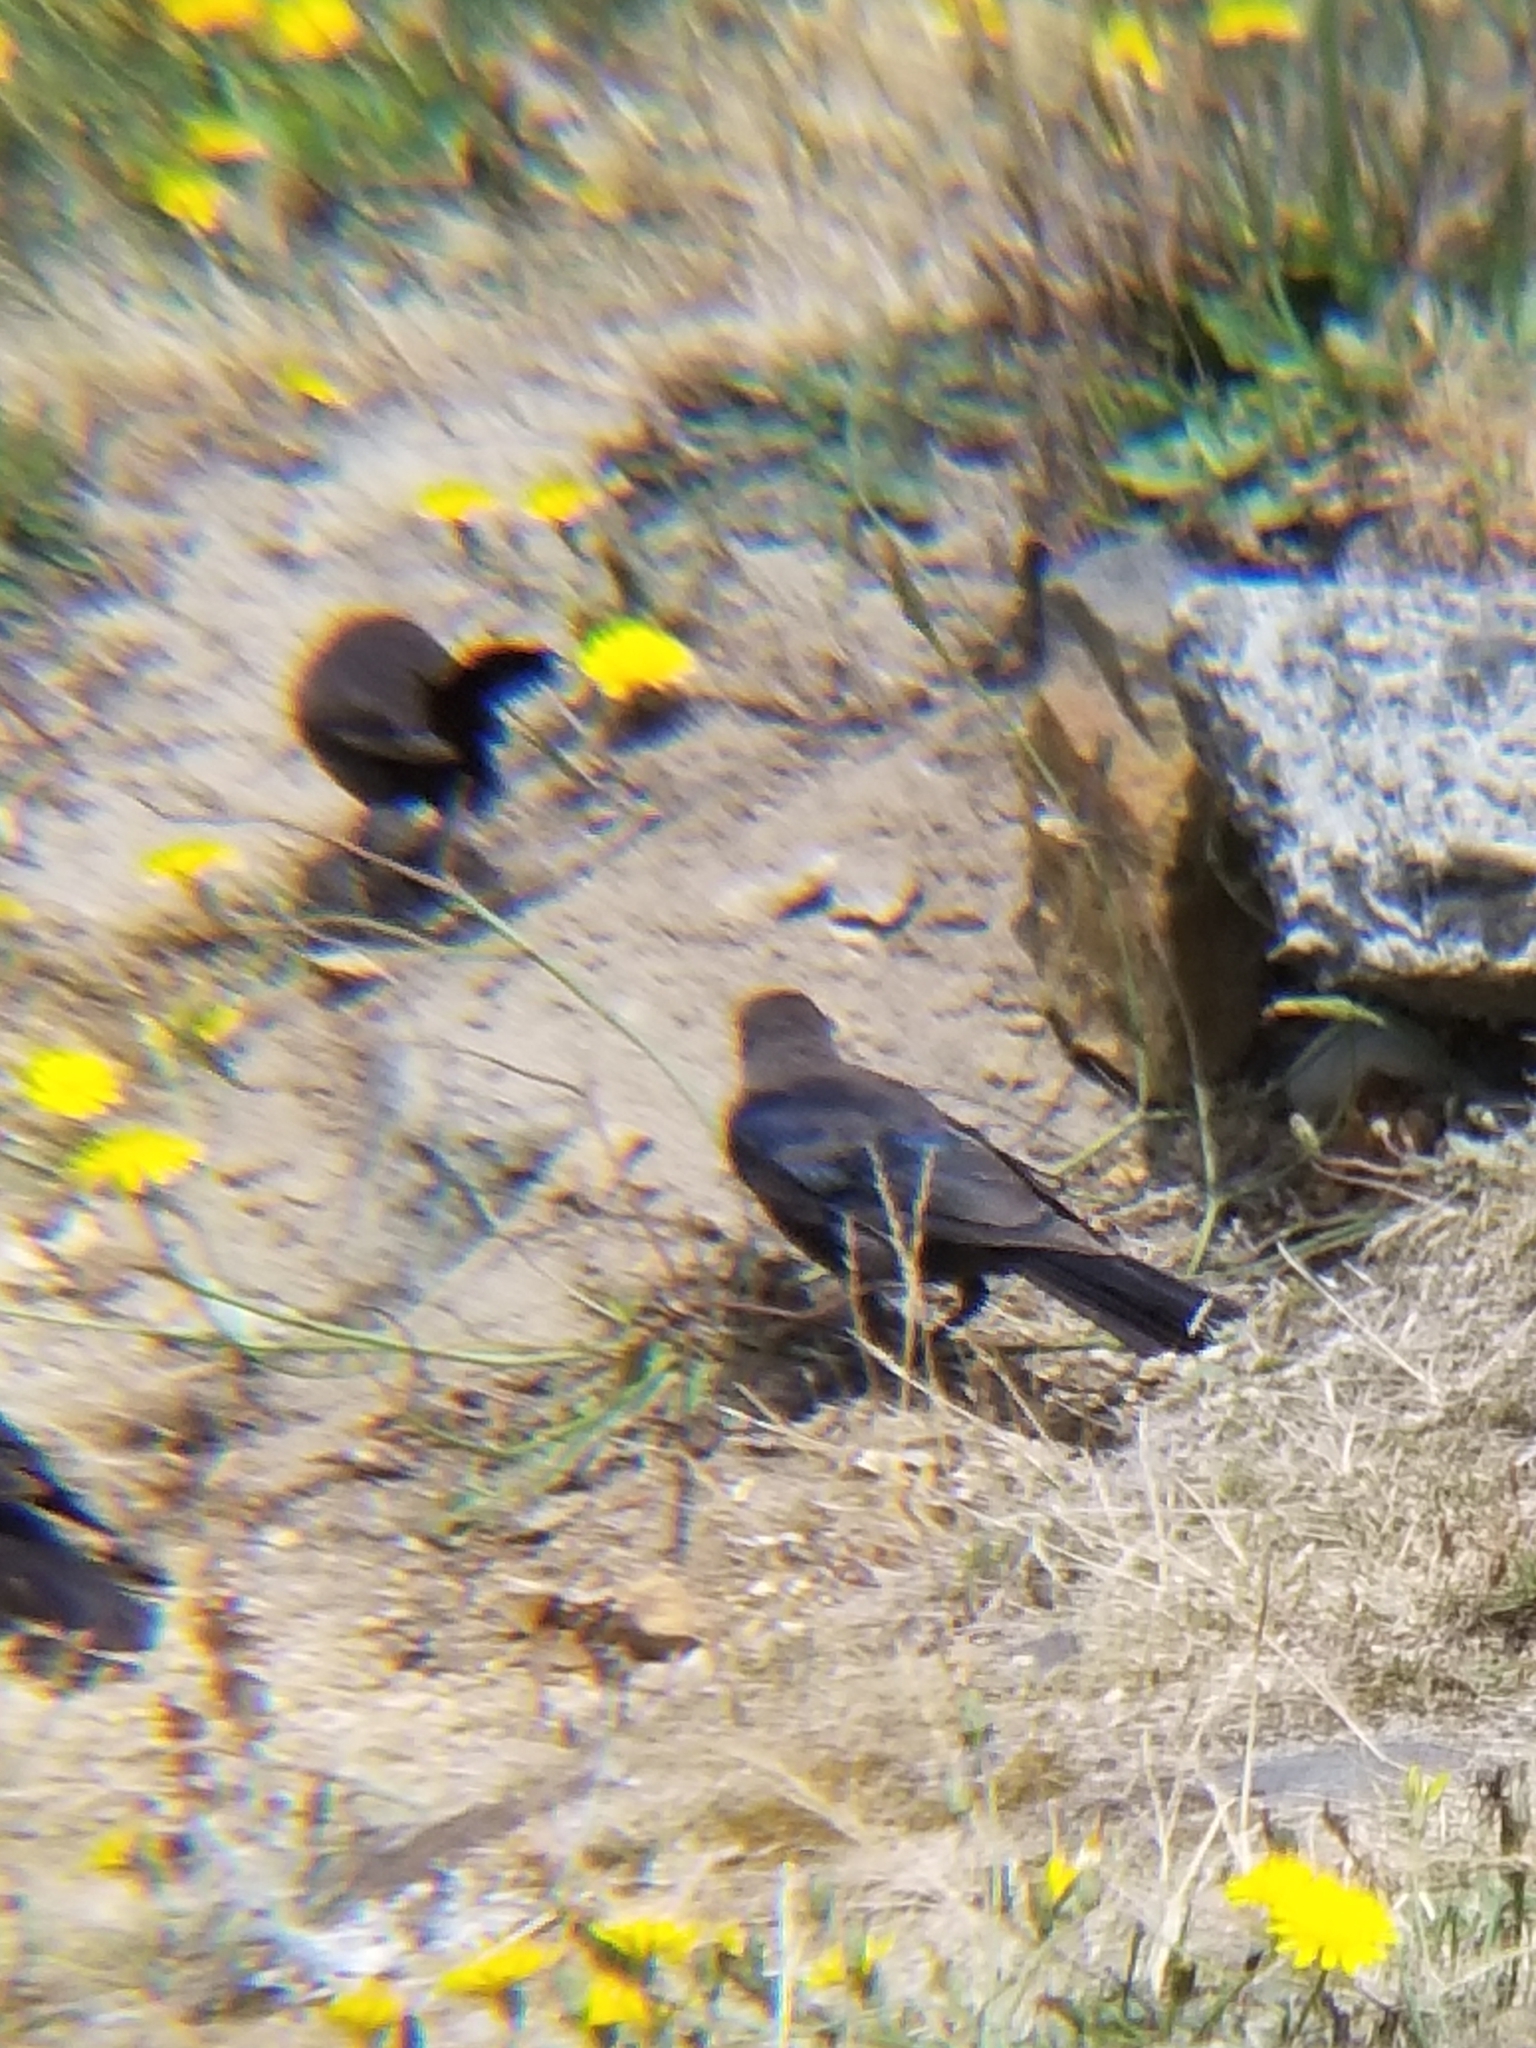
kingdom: Animalia
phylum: Chordata
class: Aves
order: Passeriformes
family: Icteridae
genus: Euphagus
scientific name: Euphagus cyanocephalus
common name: Brewer's blackbird
